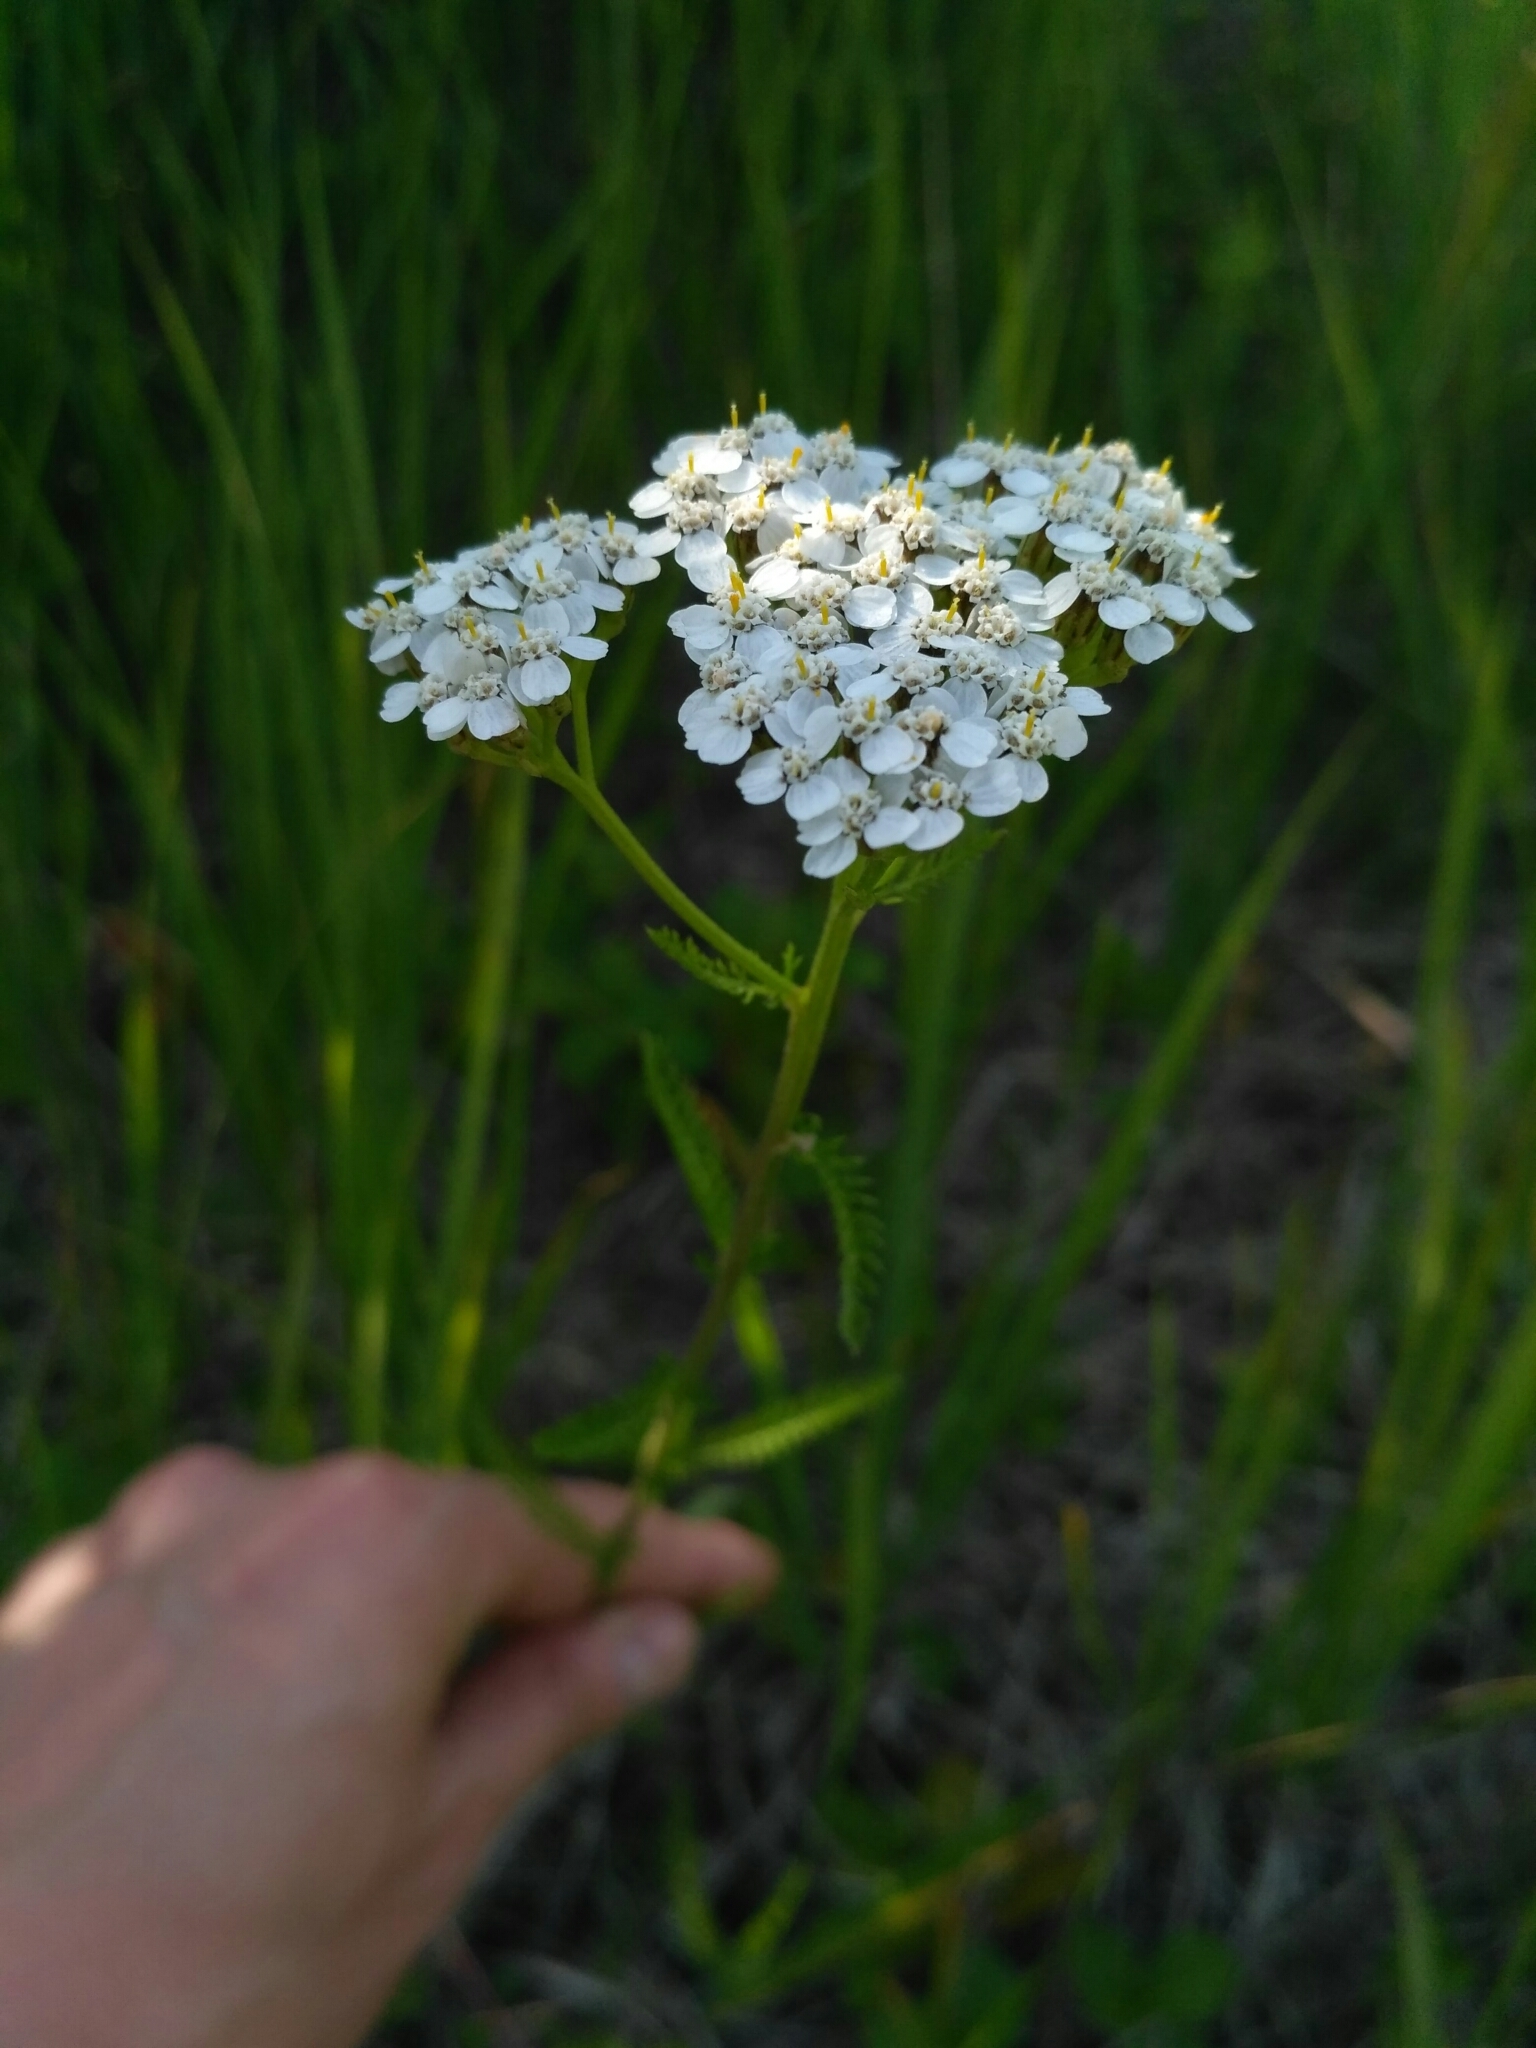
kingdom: Plantae
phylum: Tracheophyta
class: Magnoliopsida
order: Asterales
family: Asteraceae
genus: Achillea
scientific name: Achillea millefolium
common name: Yarrow
